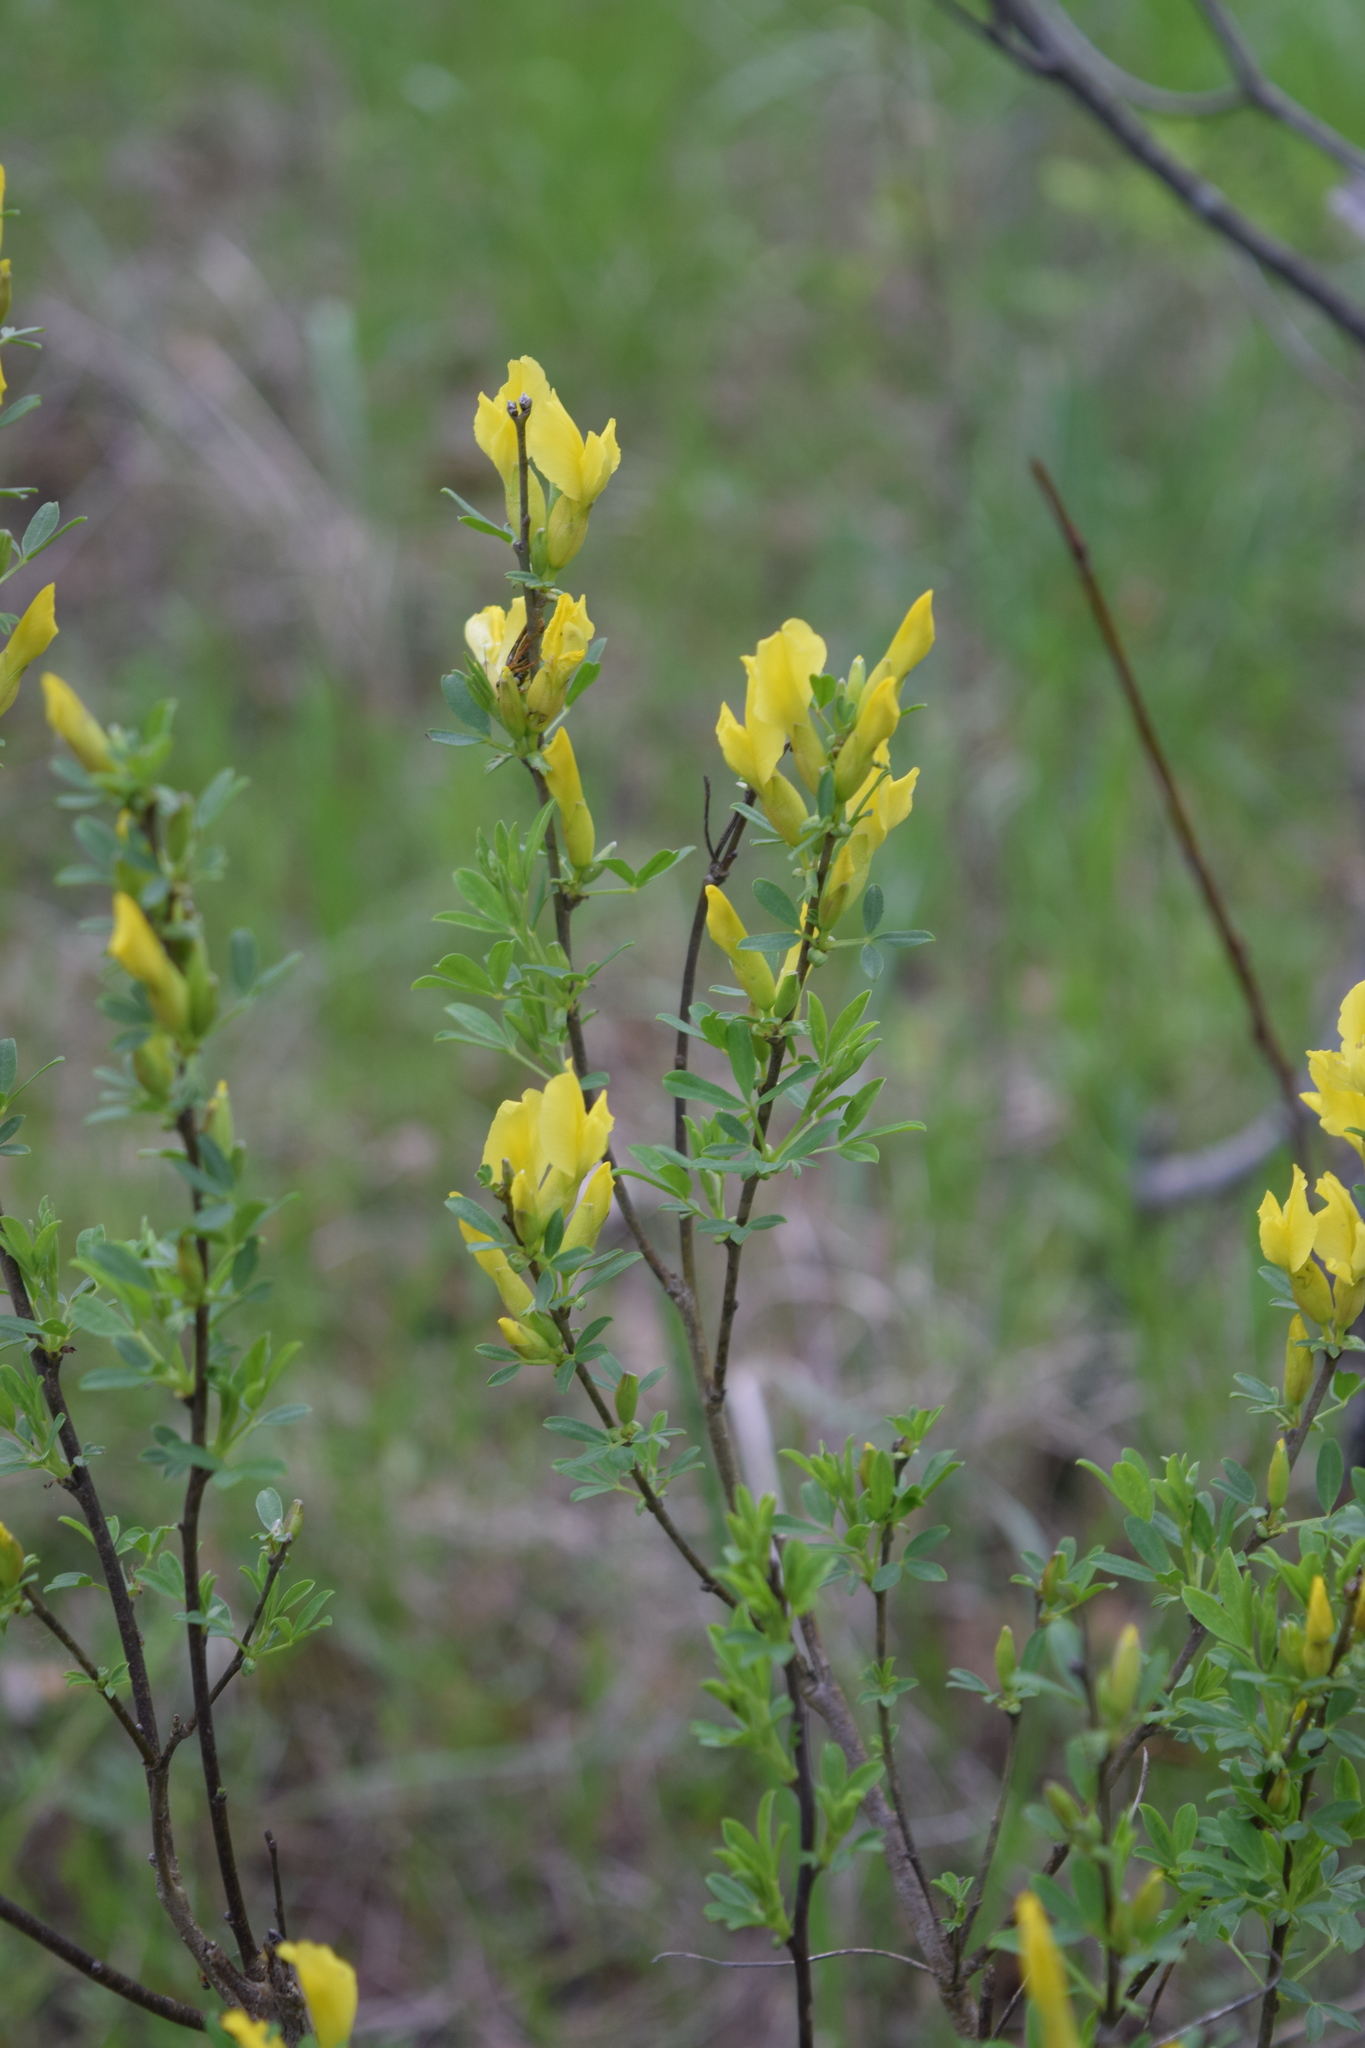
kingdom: Plantae
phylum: Tracheophyta
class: Magnoliopsida
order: Fabales
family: Fabaceae
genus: Chamaecytisus
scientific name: Chamaecytisus ruthenicus
